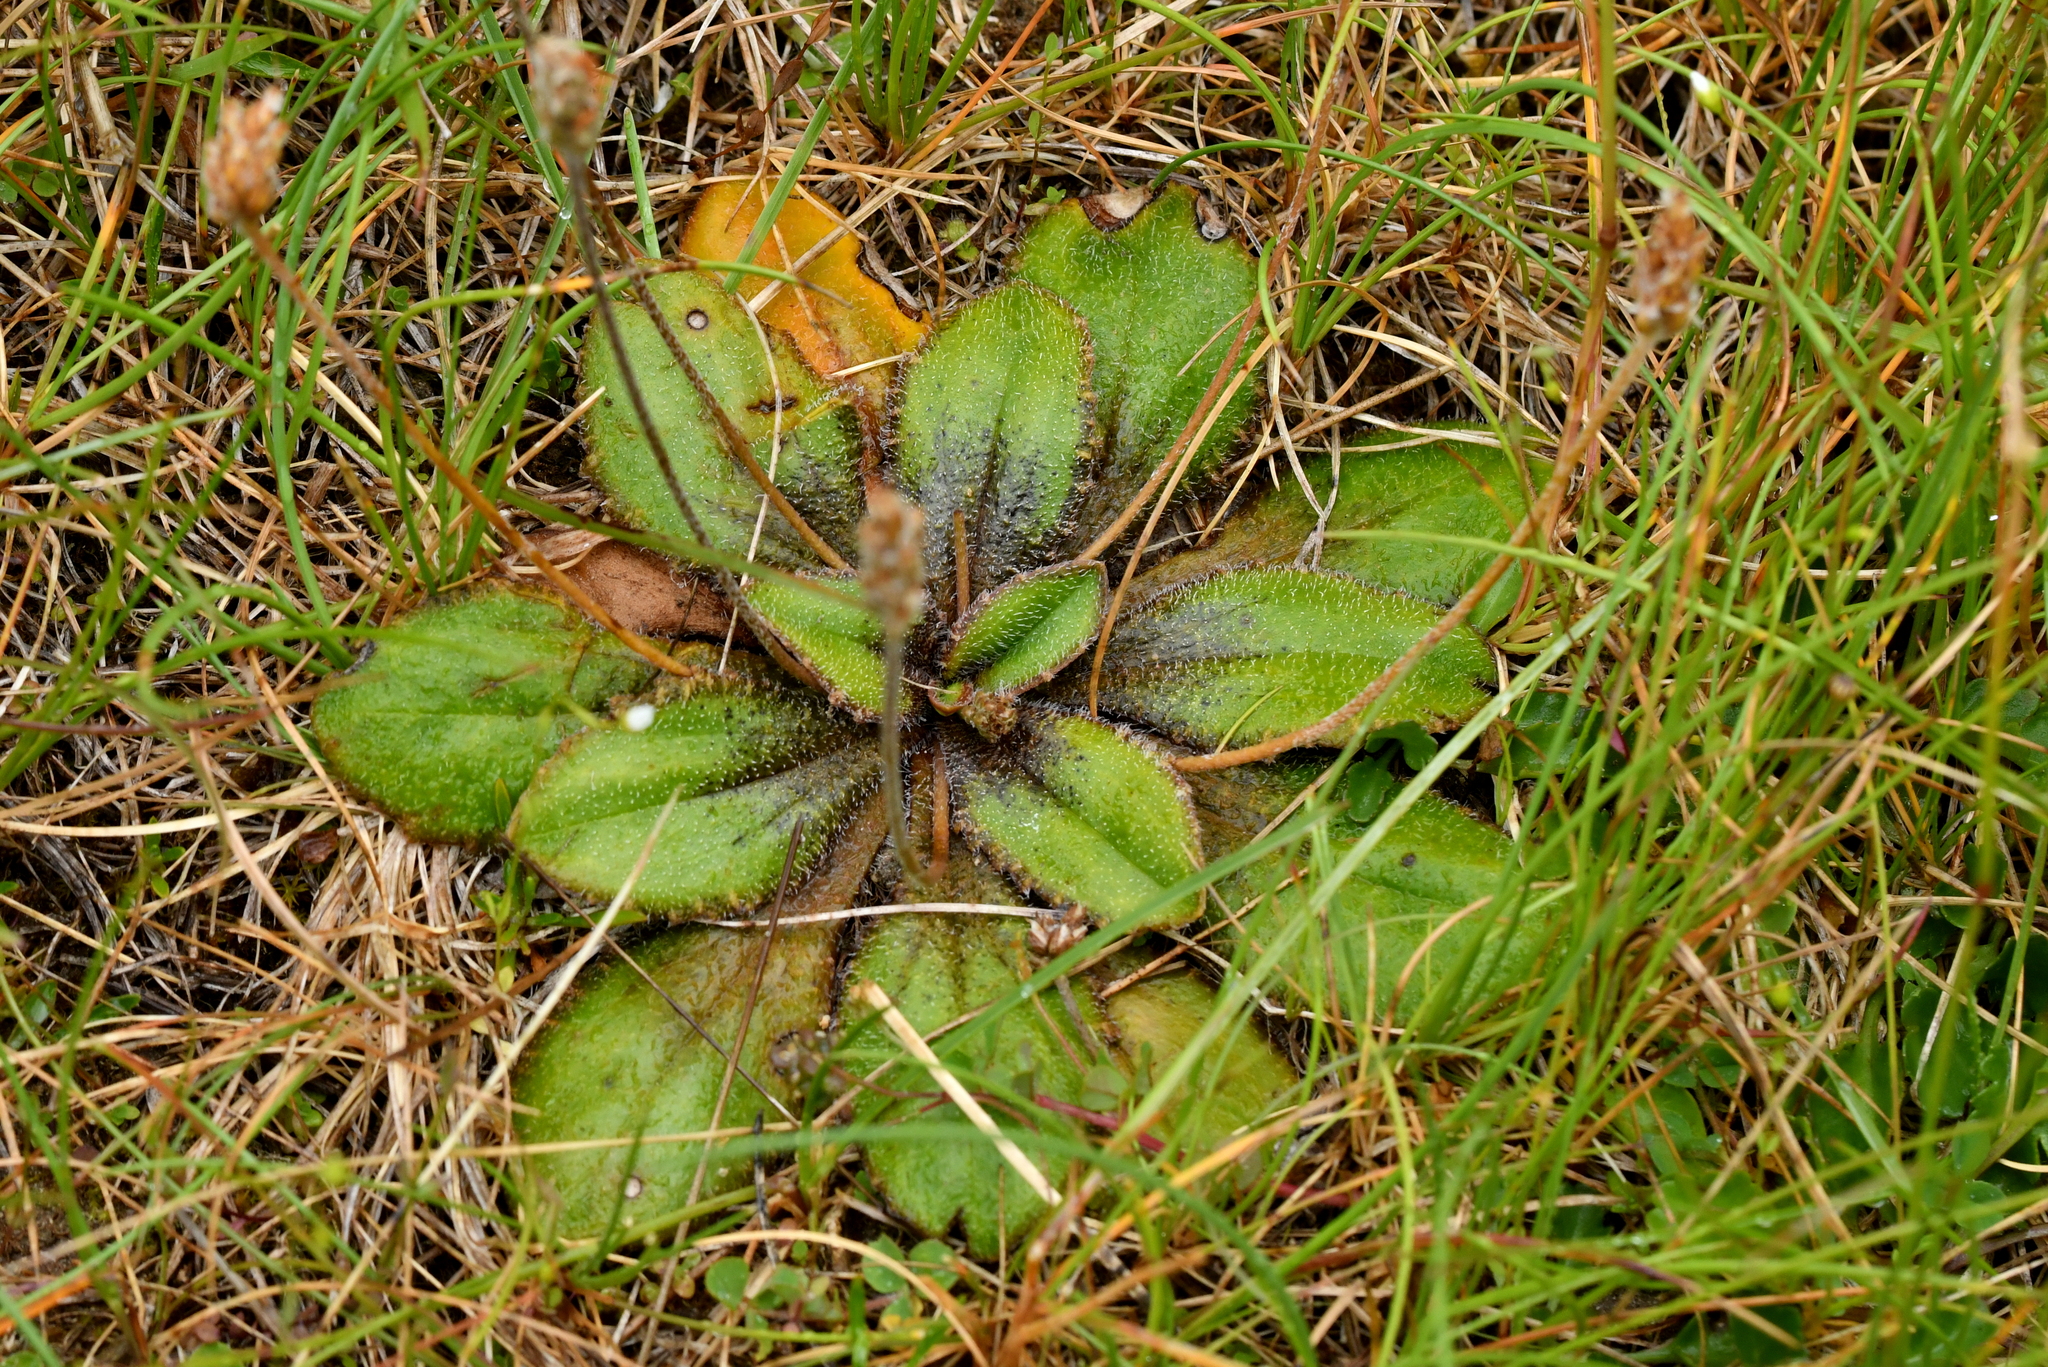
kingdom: Plantae
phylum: Tracheophyta
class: Magnoliopsida
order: Lamiales
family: Plantaginaceae
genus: Plantago
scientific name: Plantago spathulata
